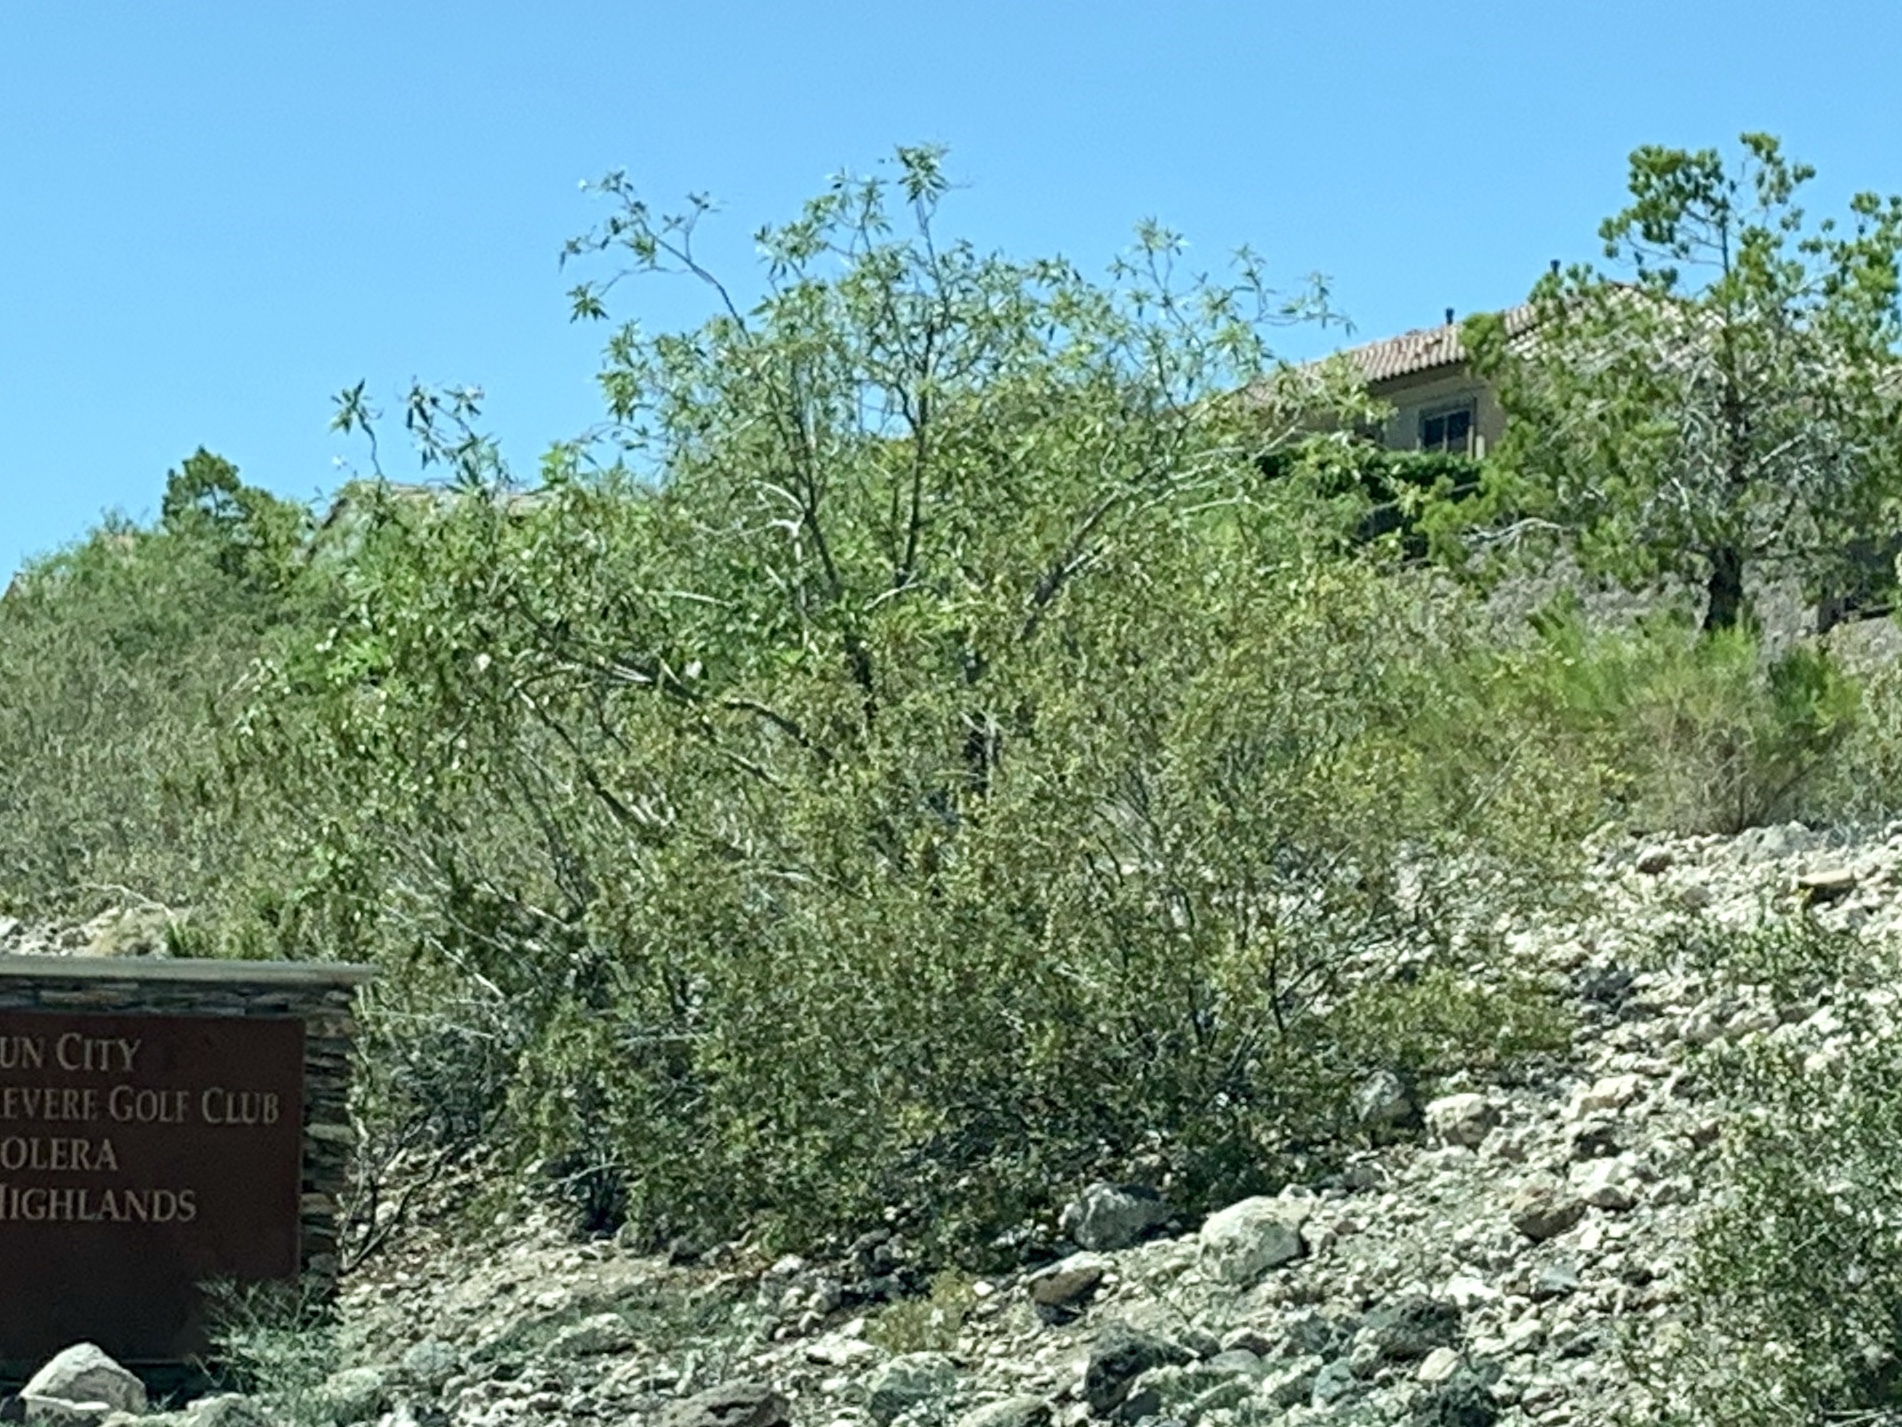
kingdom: Plantae
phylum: Tracheophyta
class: Magnoliopsida
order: Zygophyllales
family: Zygophyllaceae
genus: Larrea
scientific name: Larrea tridentata
